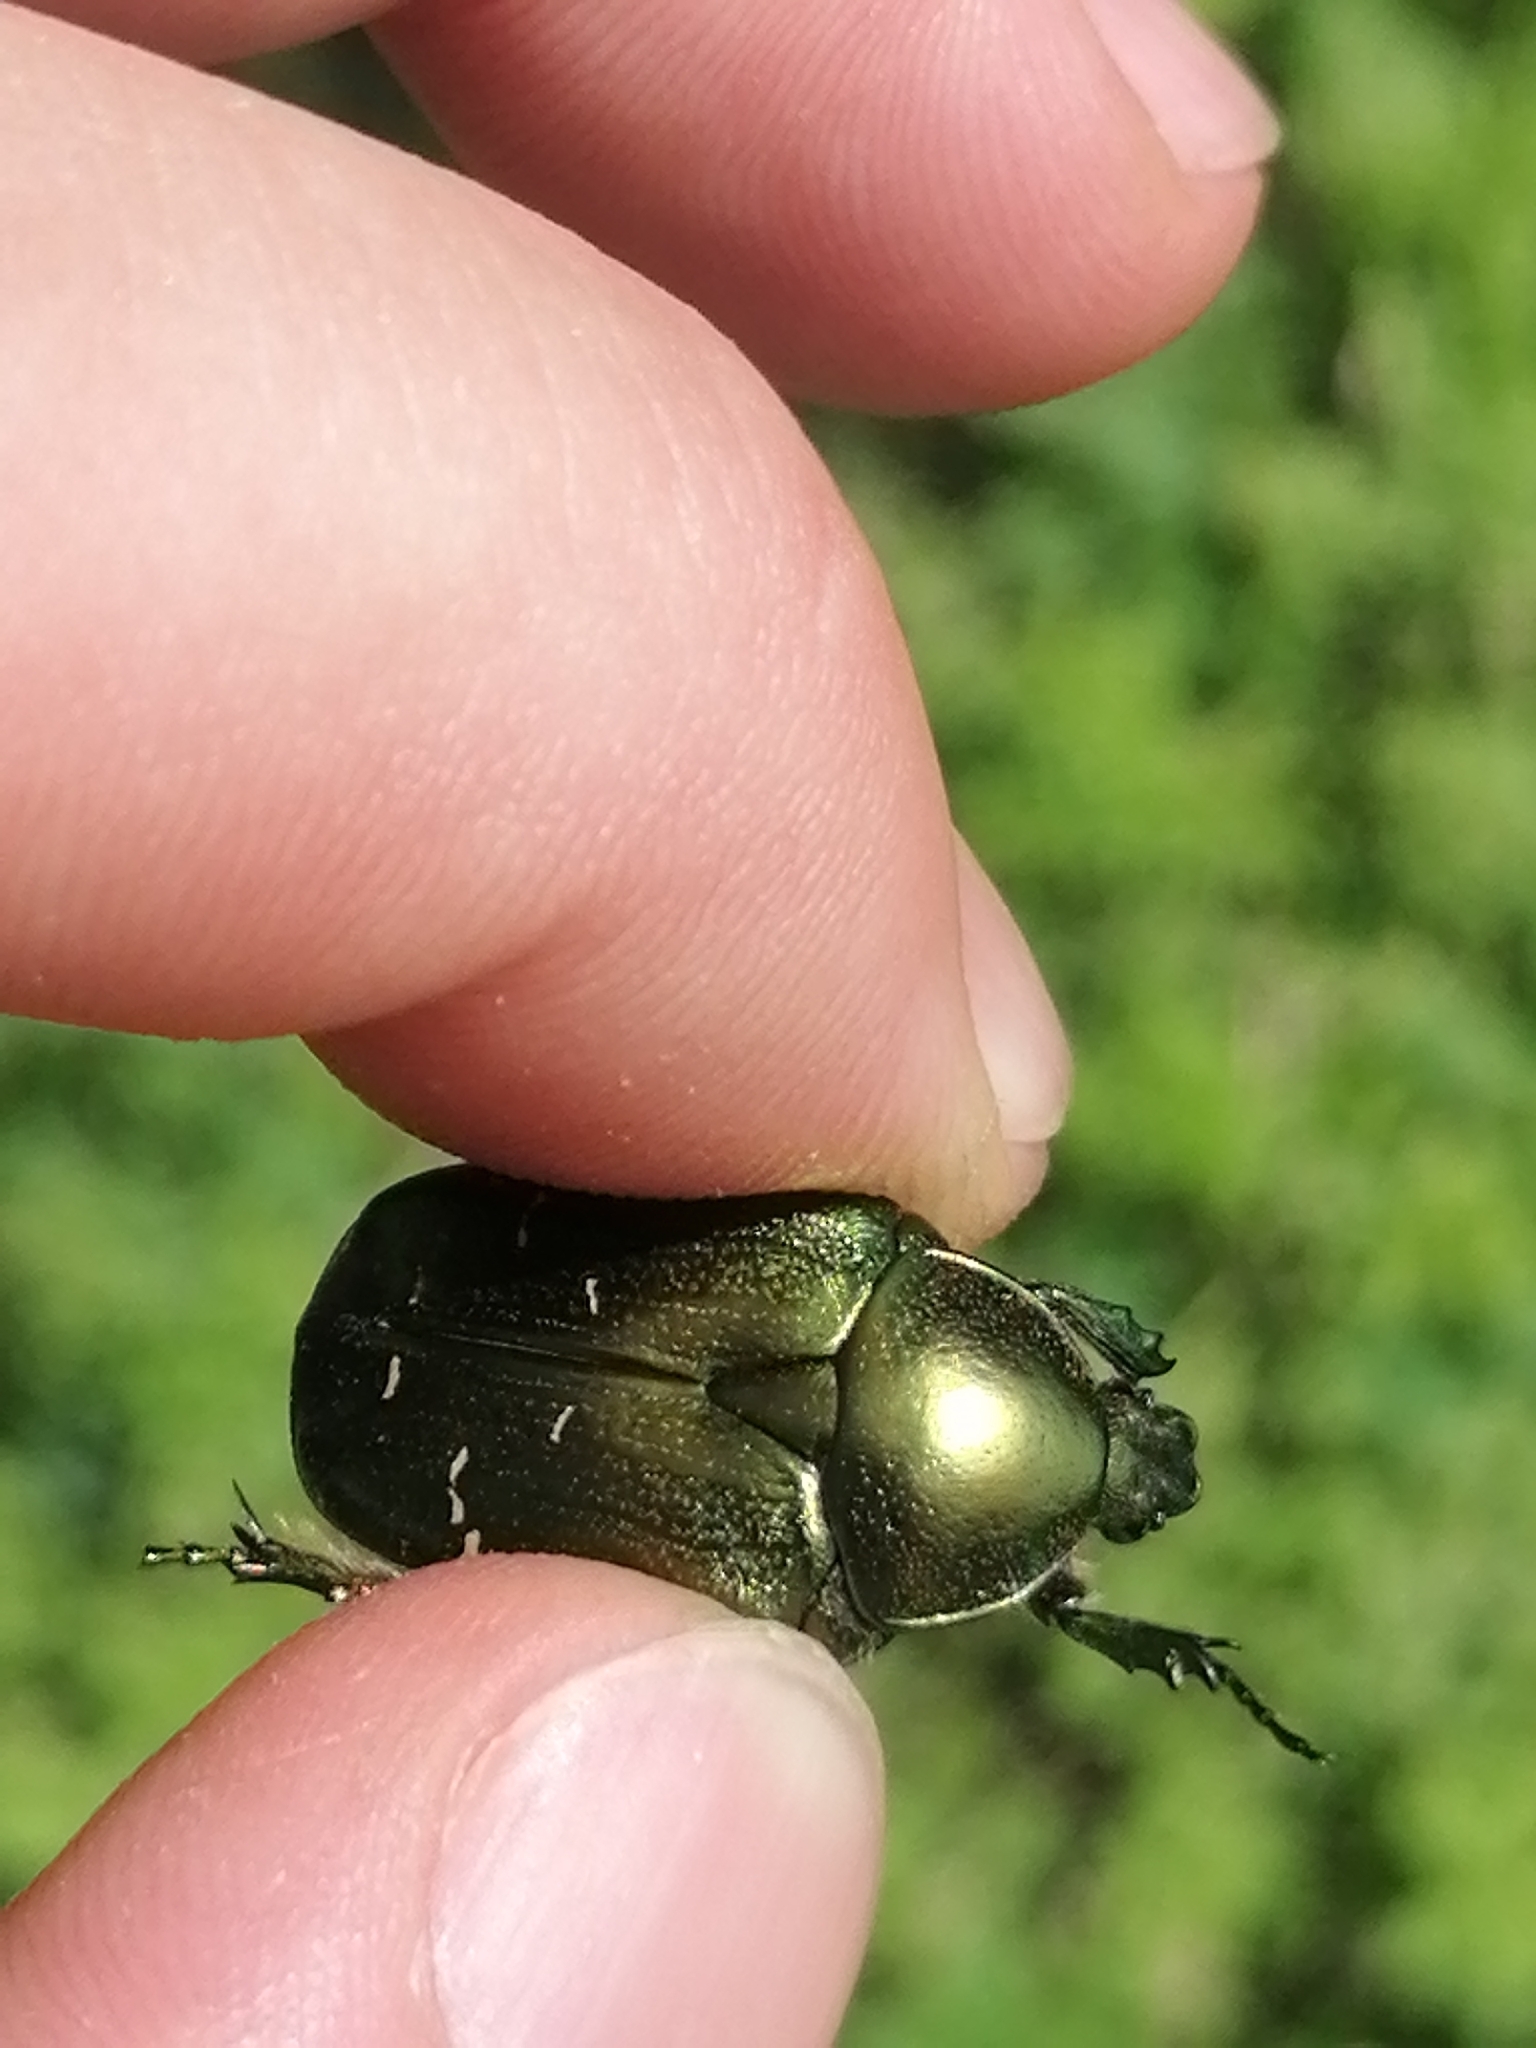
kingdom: Animalia
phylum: Arthropoda
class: Insecta
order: Coleoptera
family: Scarabaeidae
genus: Cetonia
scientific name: Cetonia aurata
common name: Rose chafer
